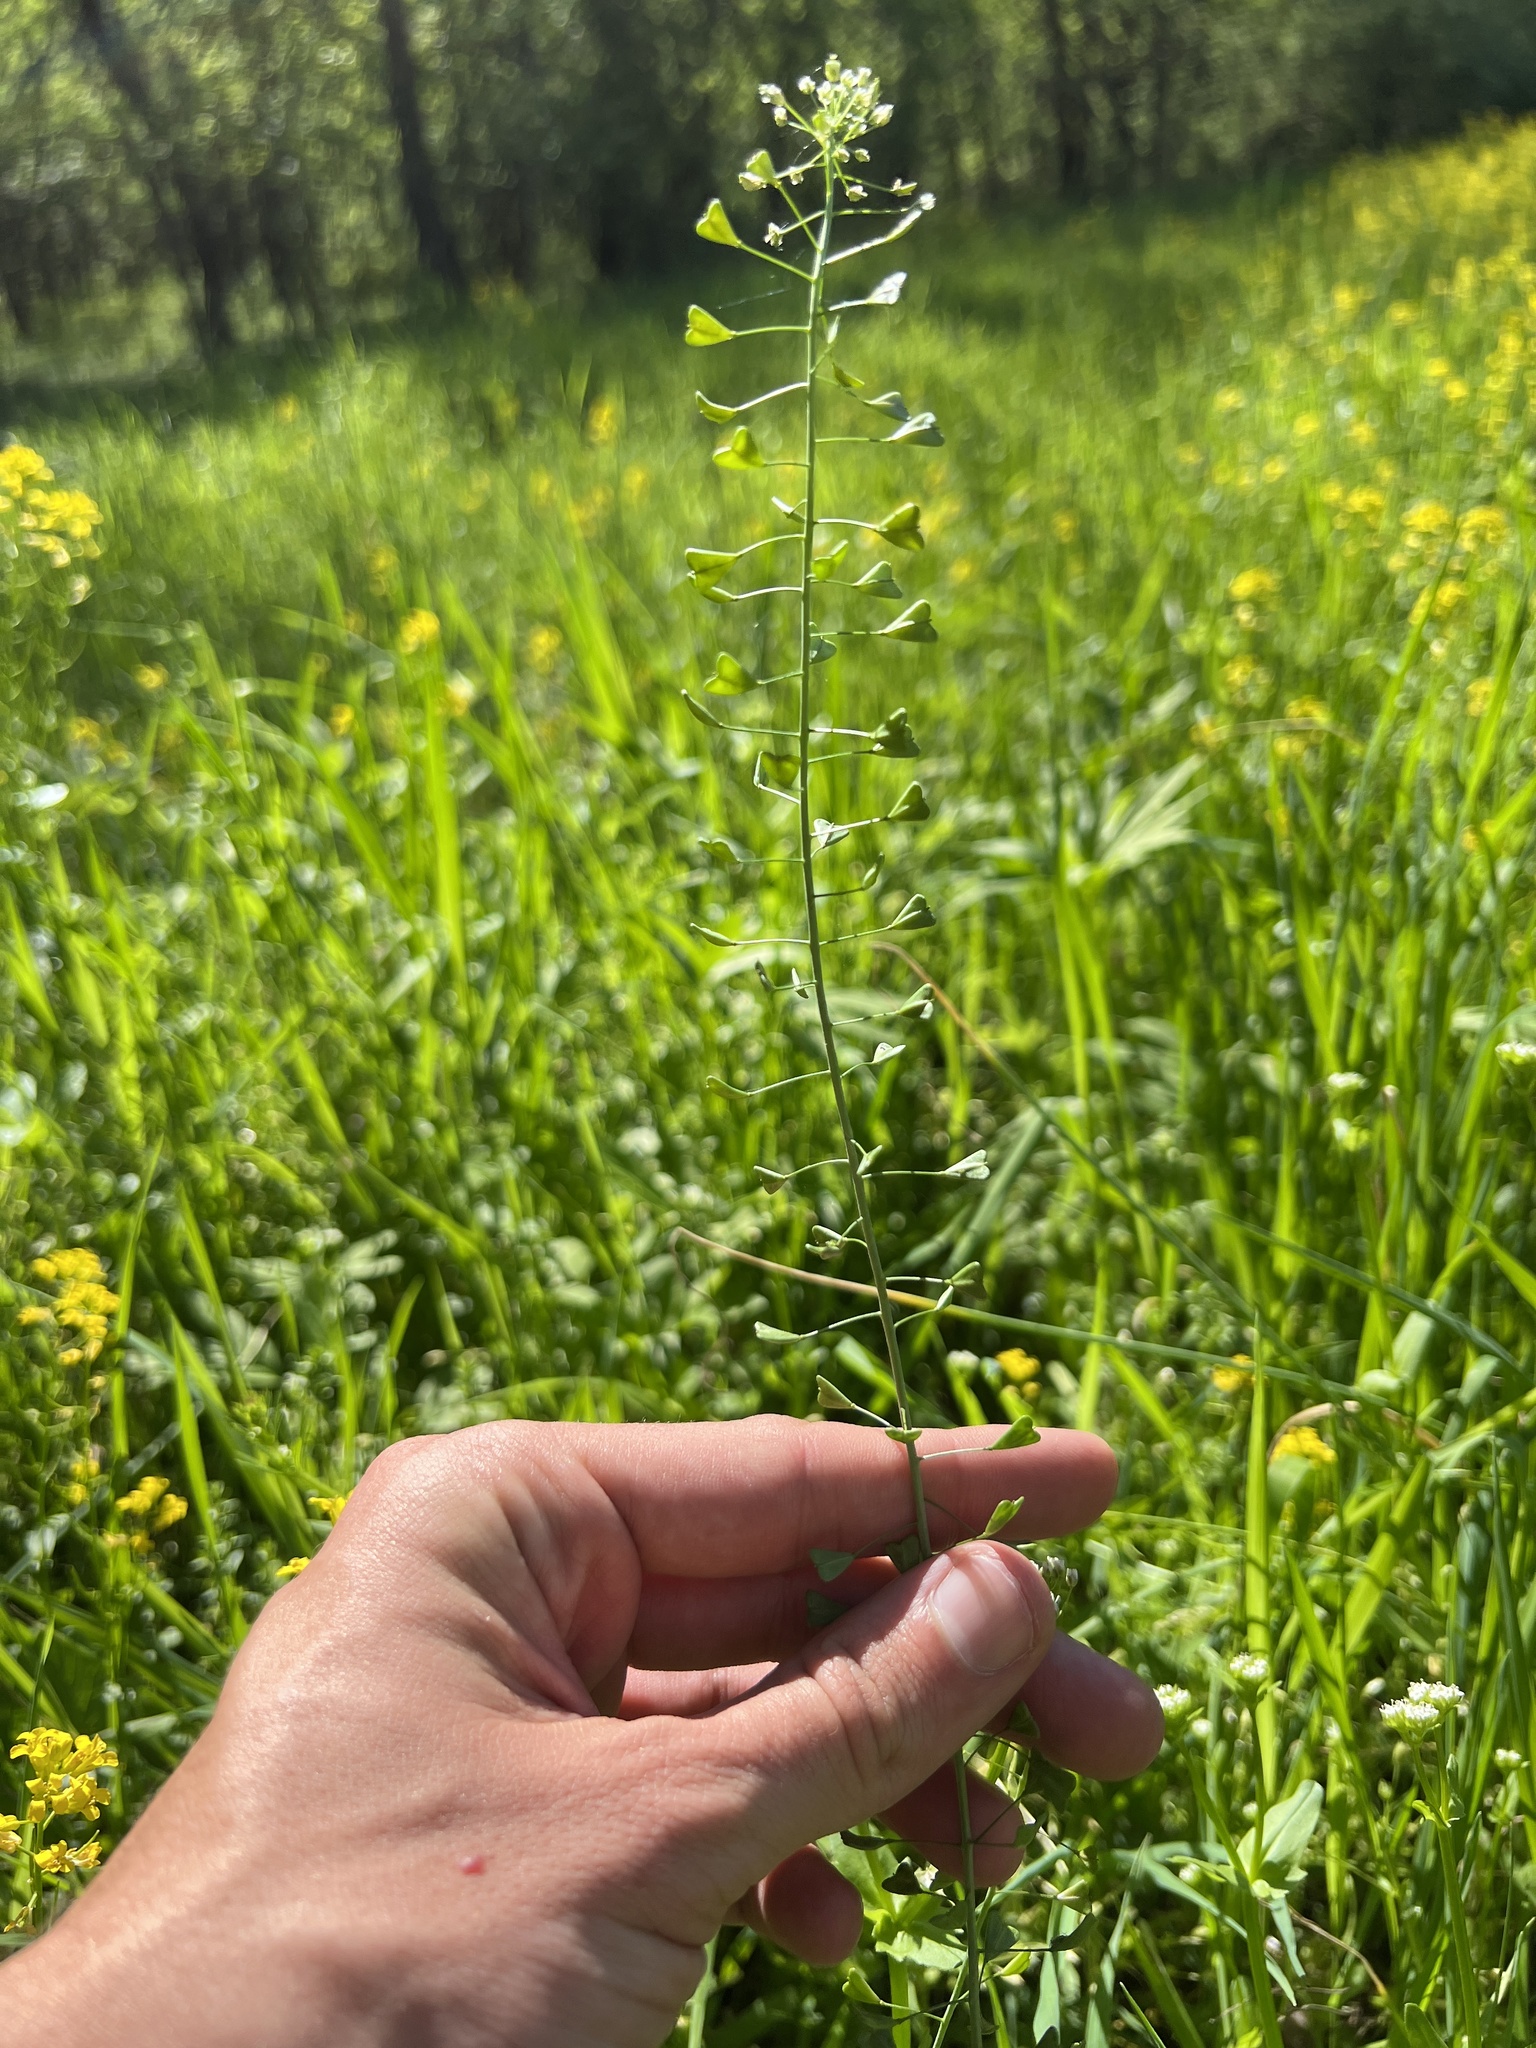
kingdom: Plantae
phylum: Tracheophyta
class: Magnoliopsida
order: Brassicales
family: Brassicaceae
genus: Capsella
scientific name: Capsella bursa-pastoris
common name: Shepherd's purse
